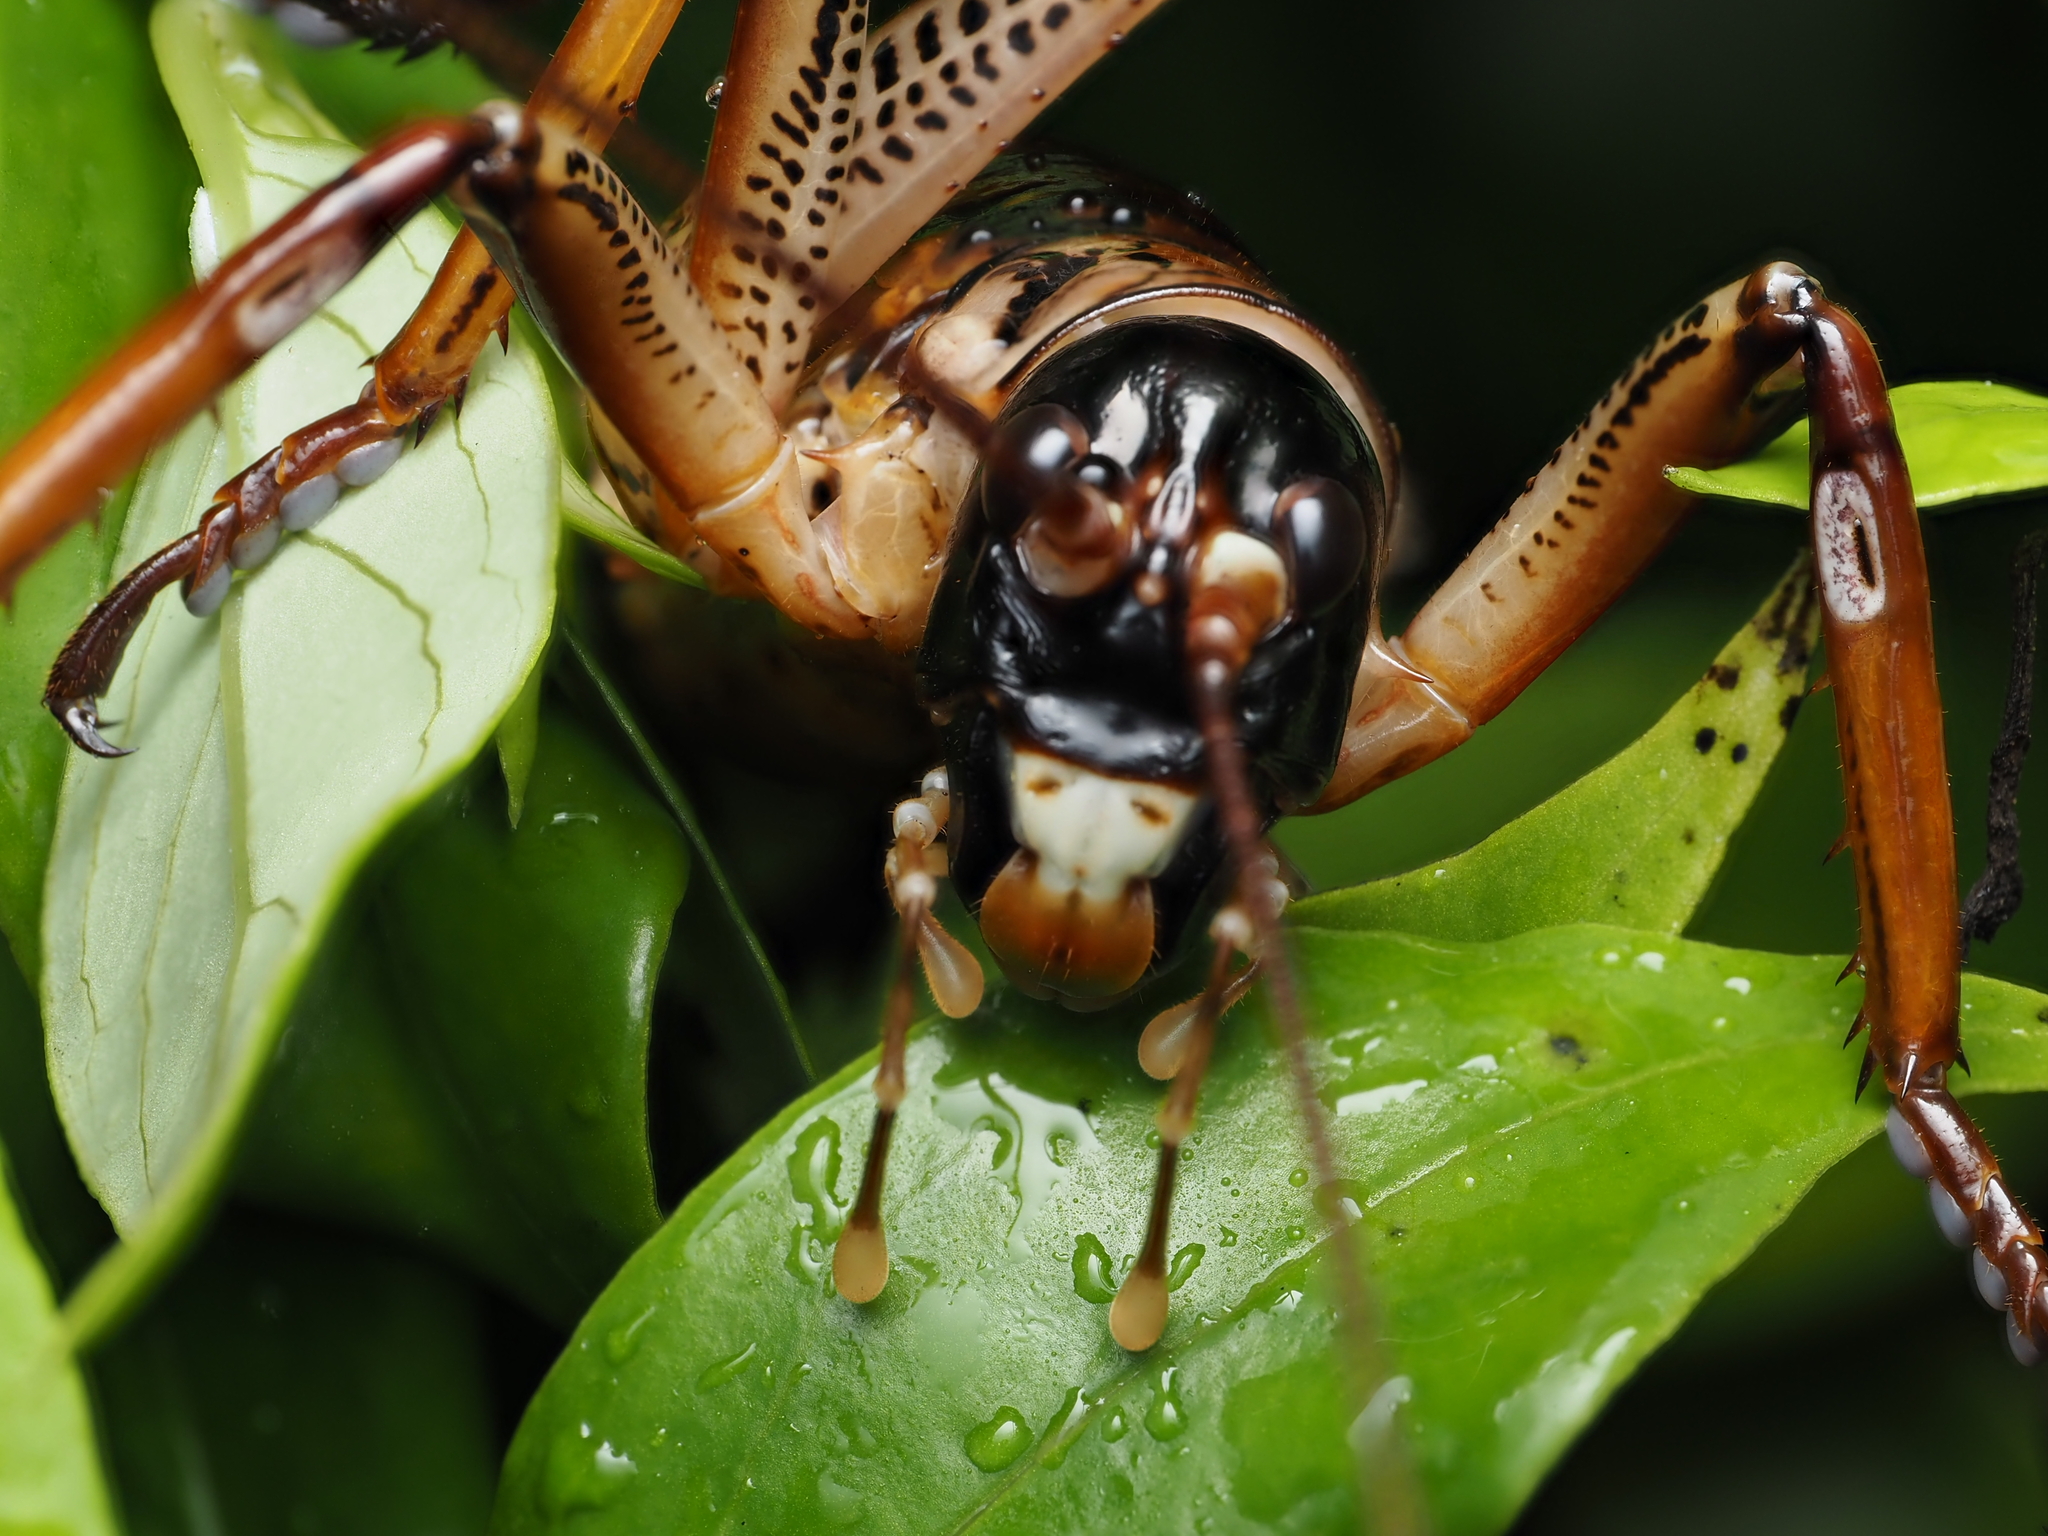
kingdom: Animalia
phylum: Arthropoda
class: Insecta
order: Orthoptera
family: Anostostomatidae
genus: Hemideina
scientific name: Hemideina thoracica
